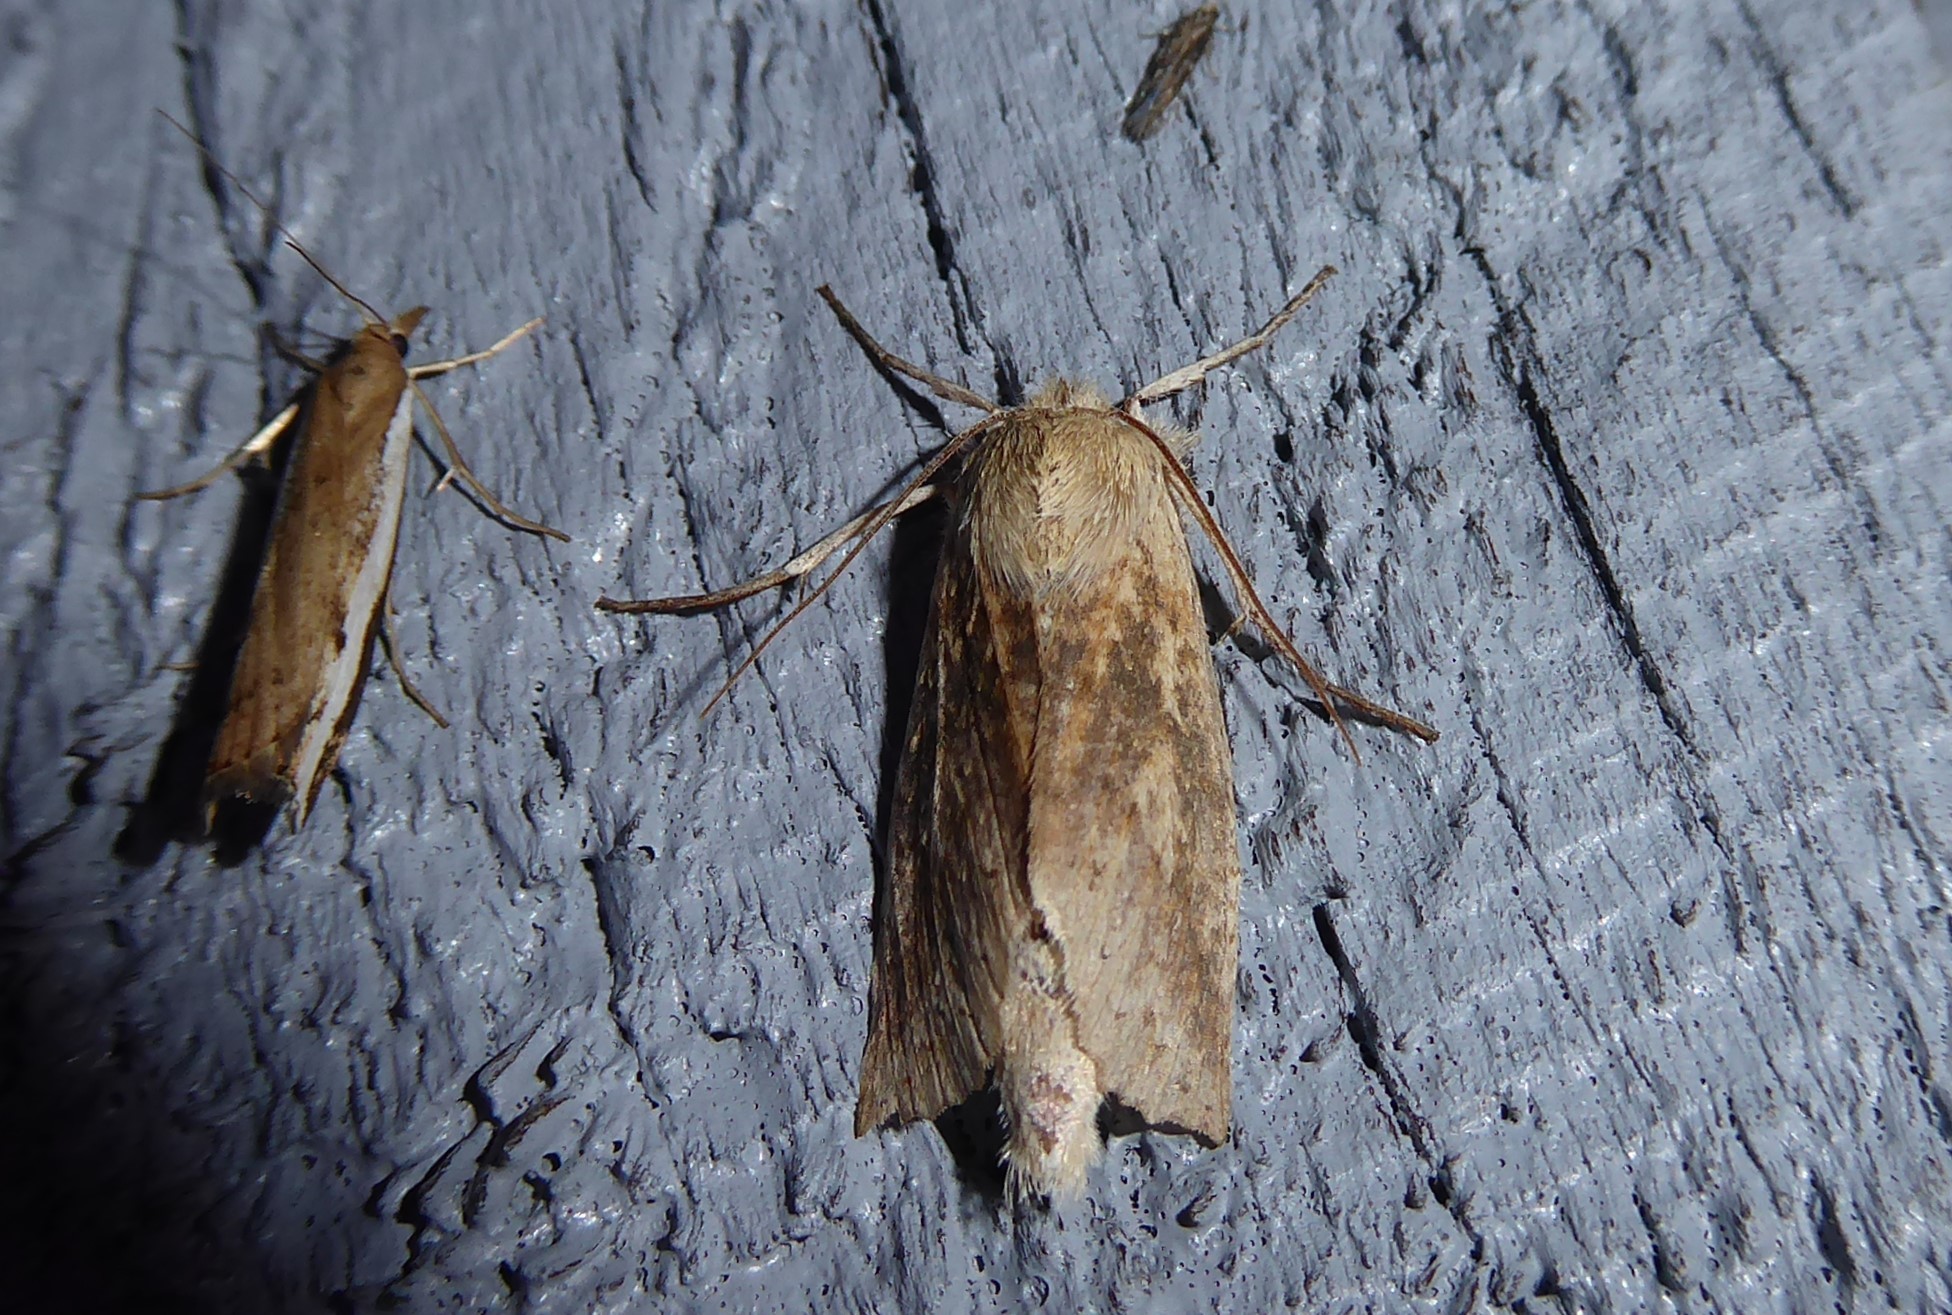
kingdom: Animalia
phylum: Arthropoda
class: Insecta
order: Lepidoptera
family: Geometridae
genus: Declana
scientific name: Declana leptomera
